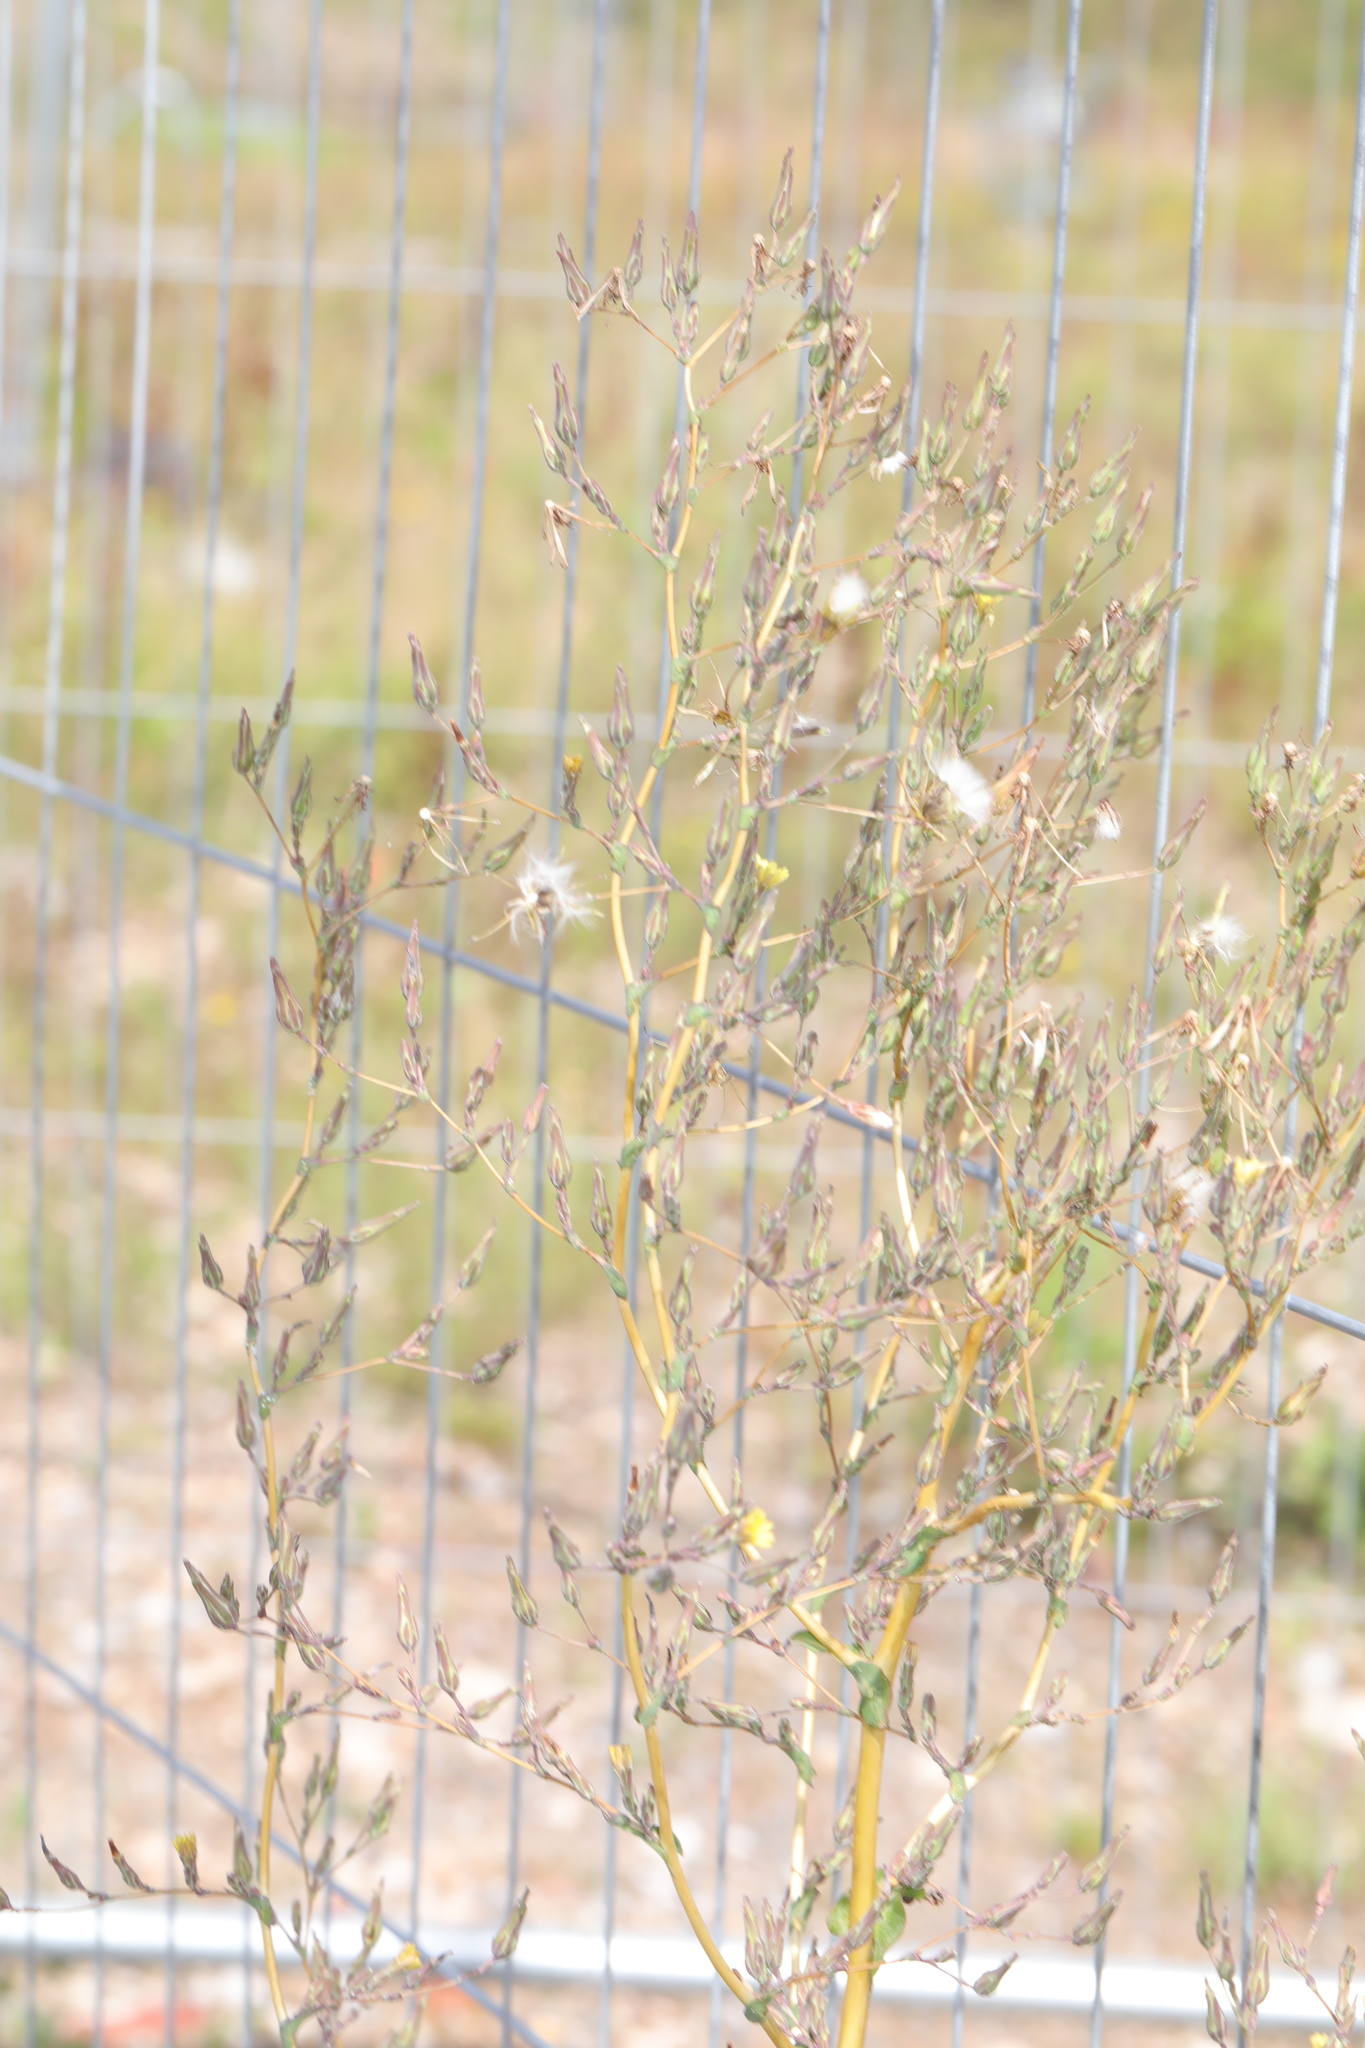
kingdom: Plantae
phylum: Tracheophyta
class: Magnoliopsida
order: Asterales
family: Asteraceae
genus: Lactuca
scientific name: Lactuca serriola
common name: Prickly lettuce
